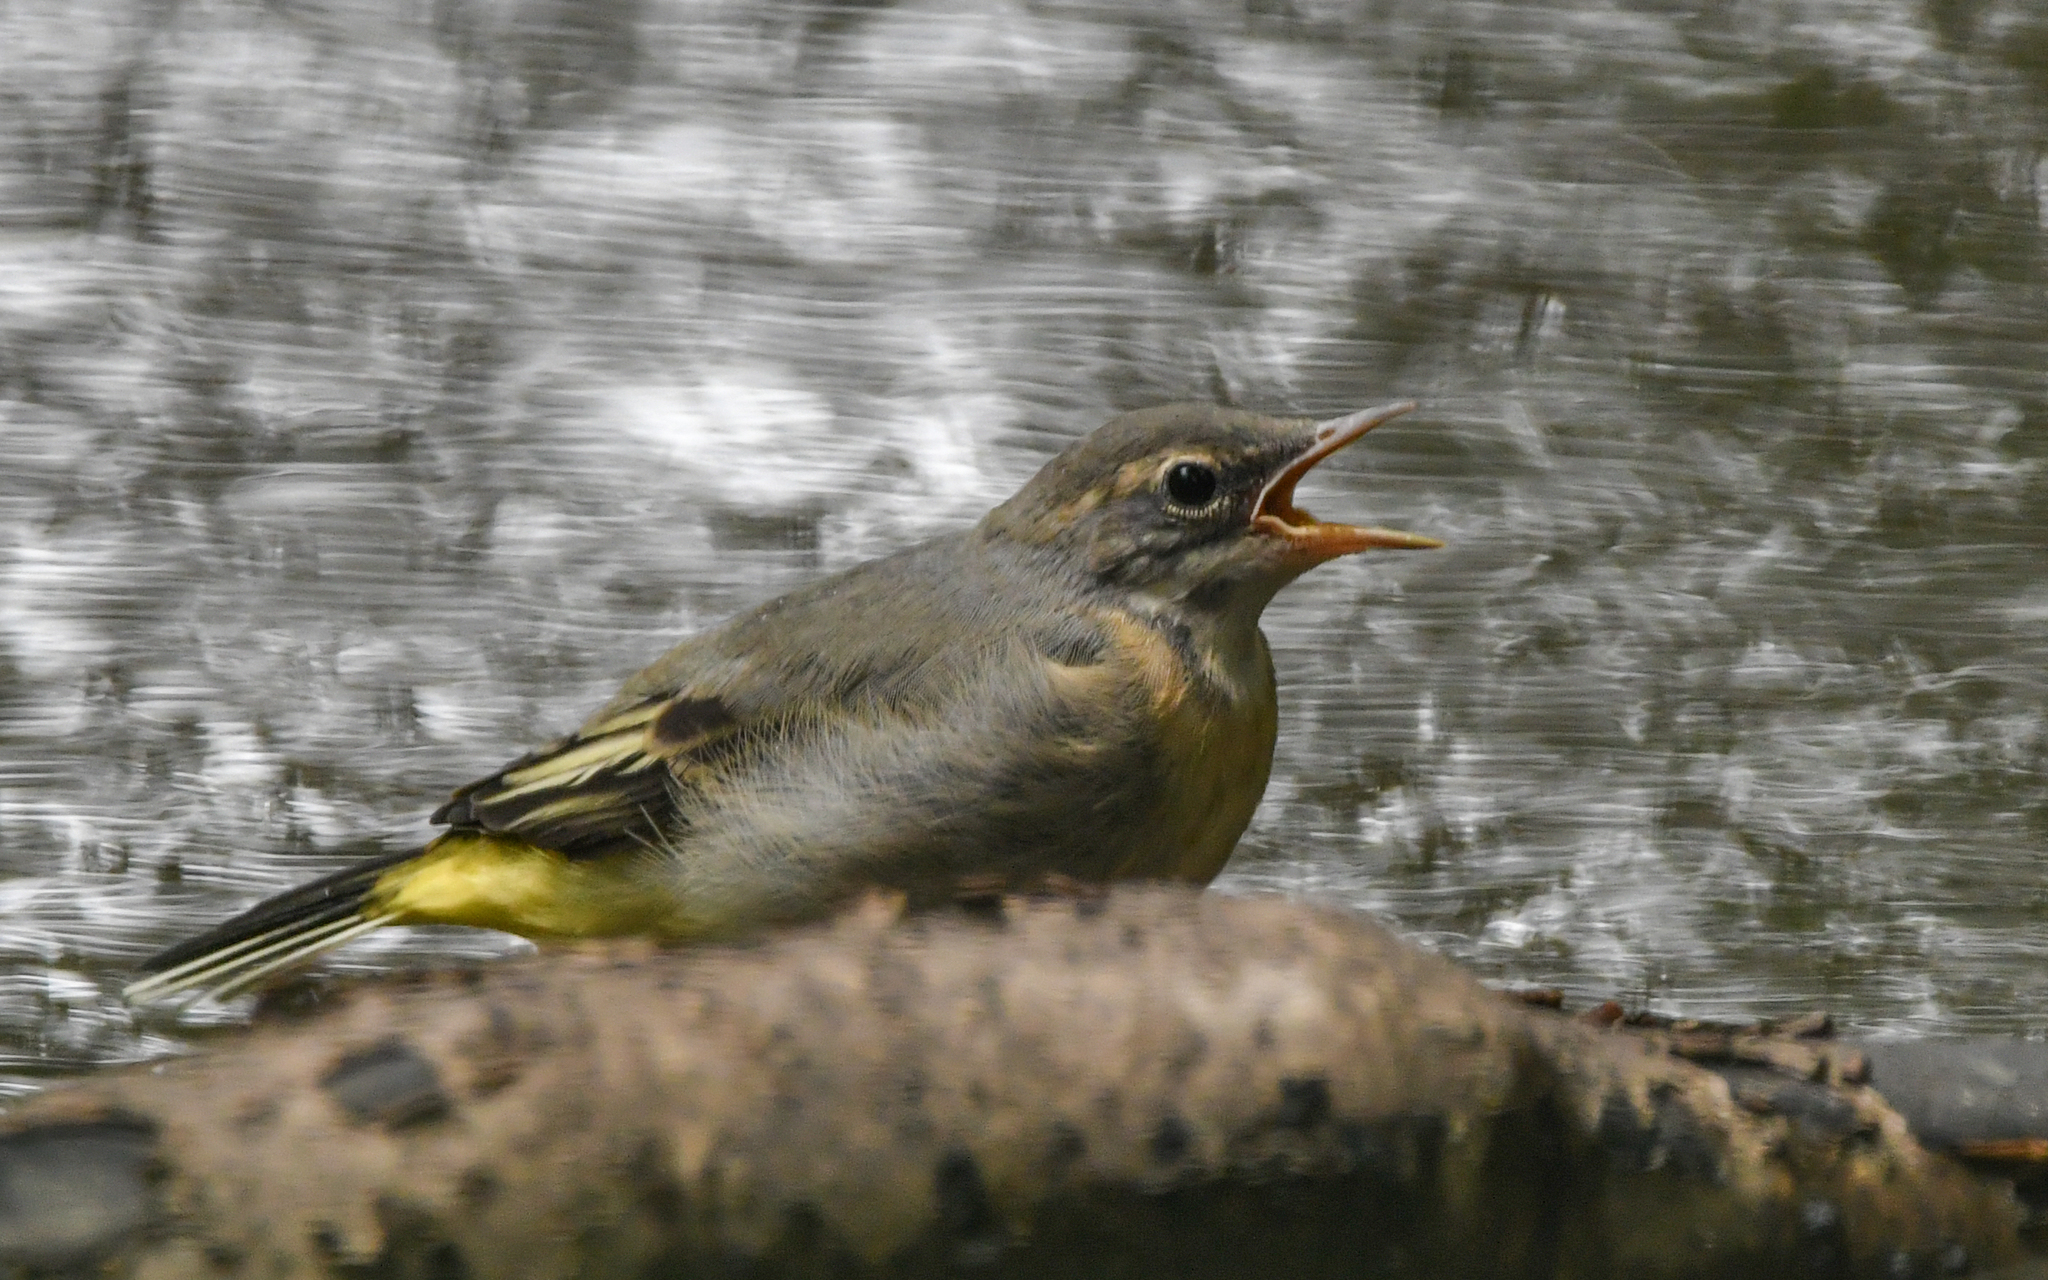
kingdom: Animalia
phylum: Chordata
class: Aves
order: Passeriformes
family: Motacillidae
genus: Motacilla
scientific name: Motacilla cinerea
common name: Grey wagtail
